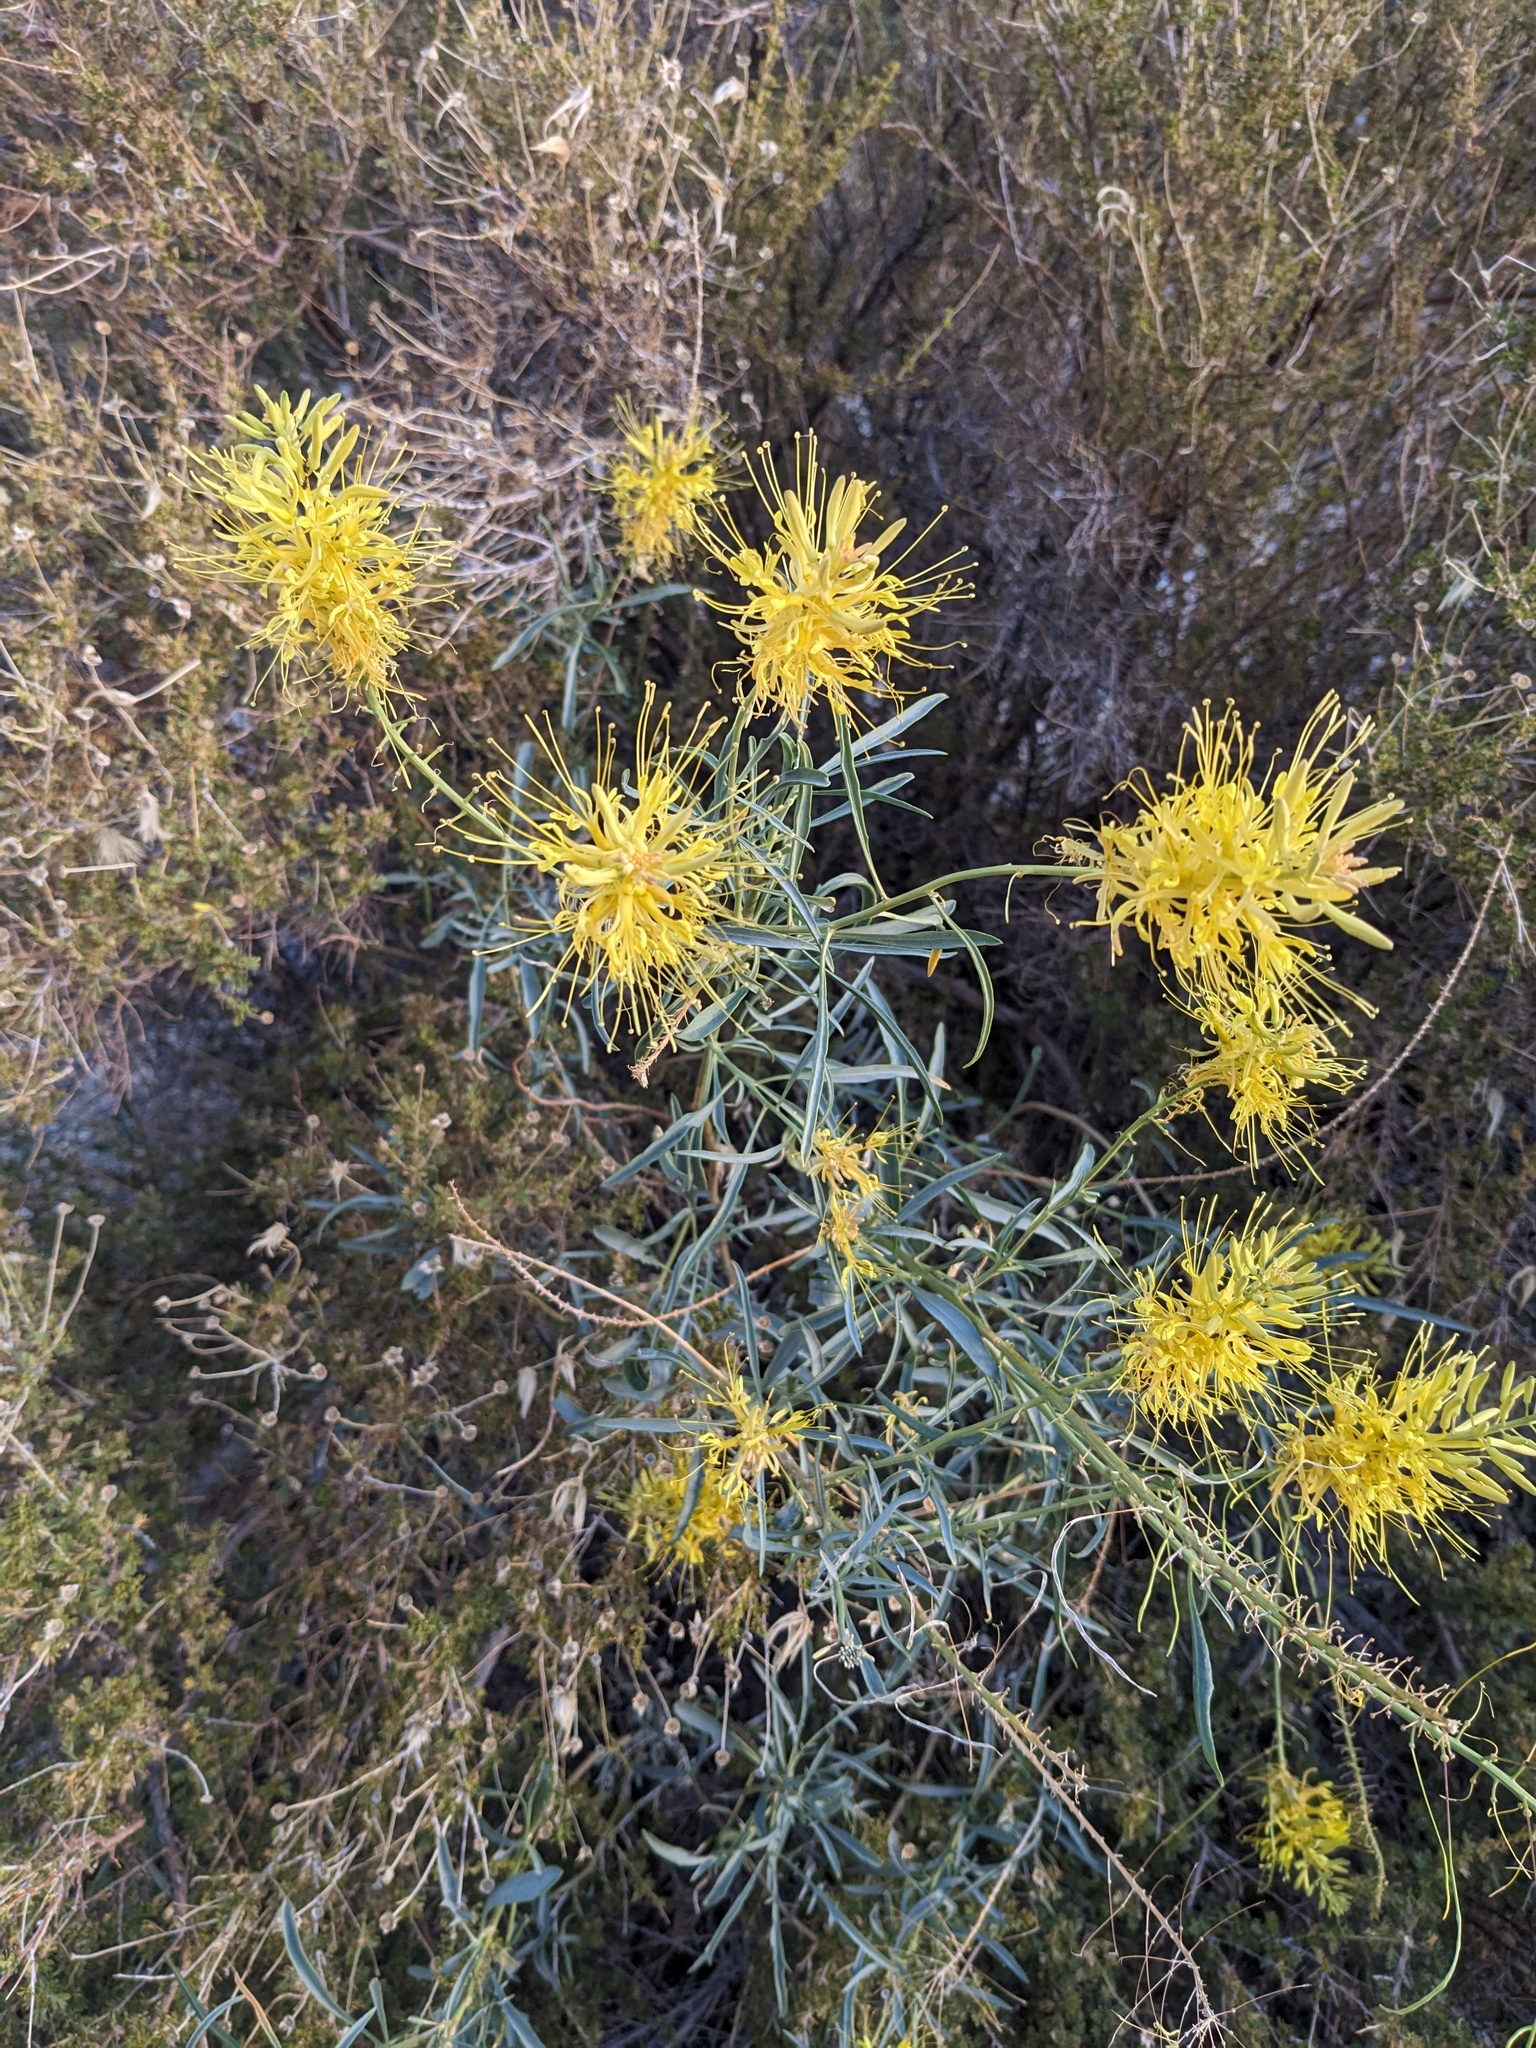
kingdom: Plantae
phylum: Tracheophyta
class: Magnoliopsida
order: Brassicales
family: Brassicaceae
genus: Stanleya
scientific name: Stanleya pinnata
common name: Prince's-plume
